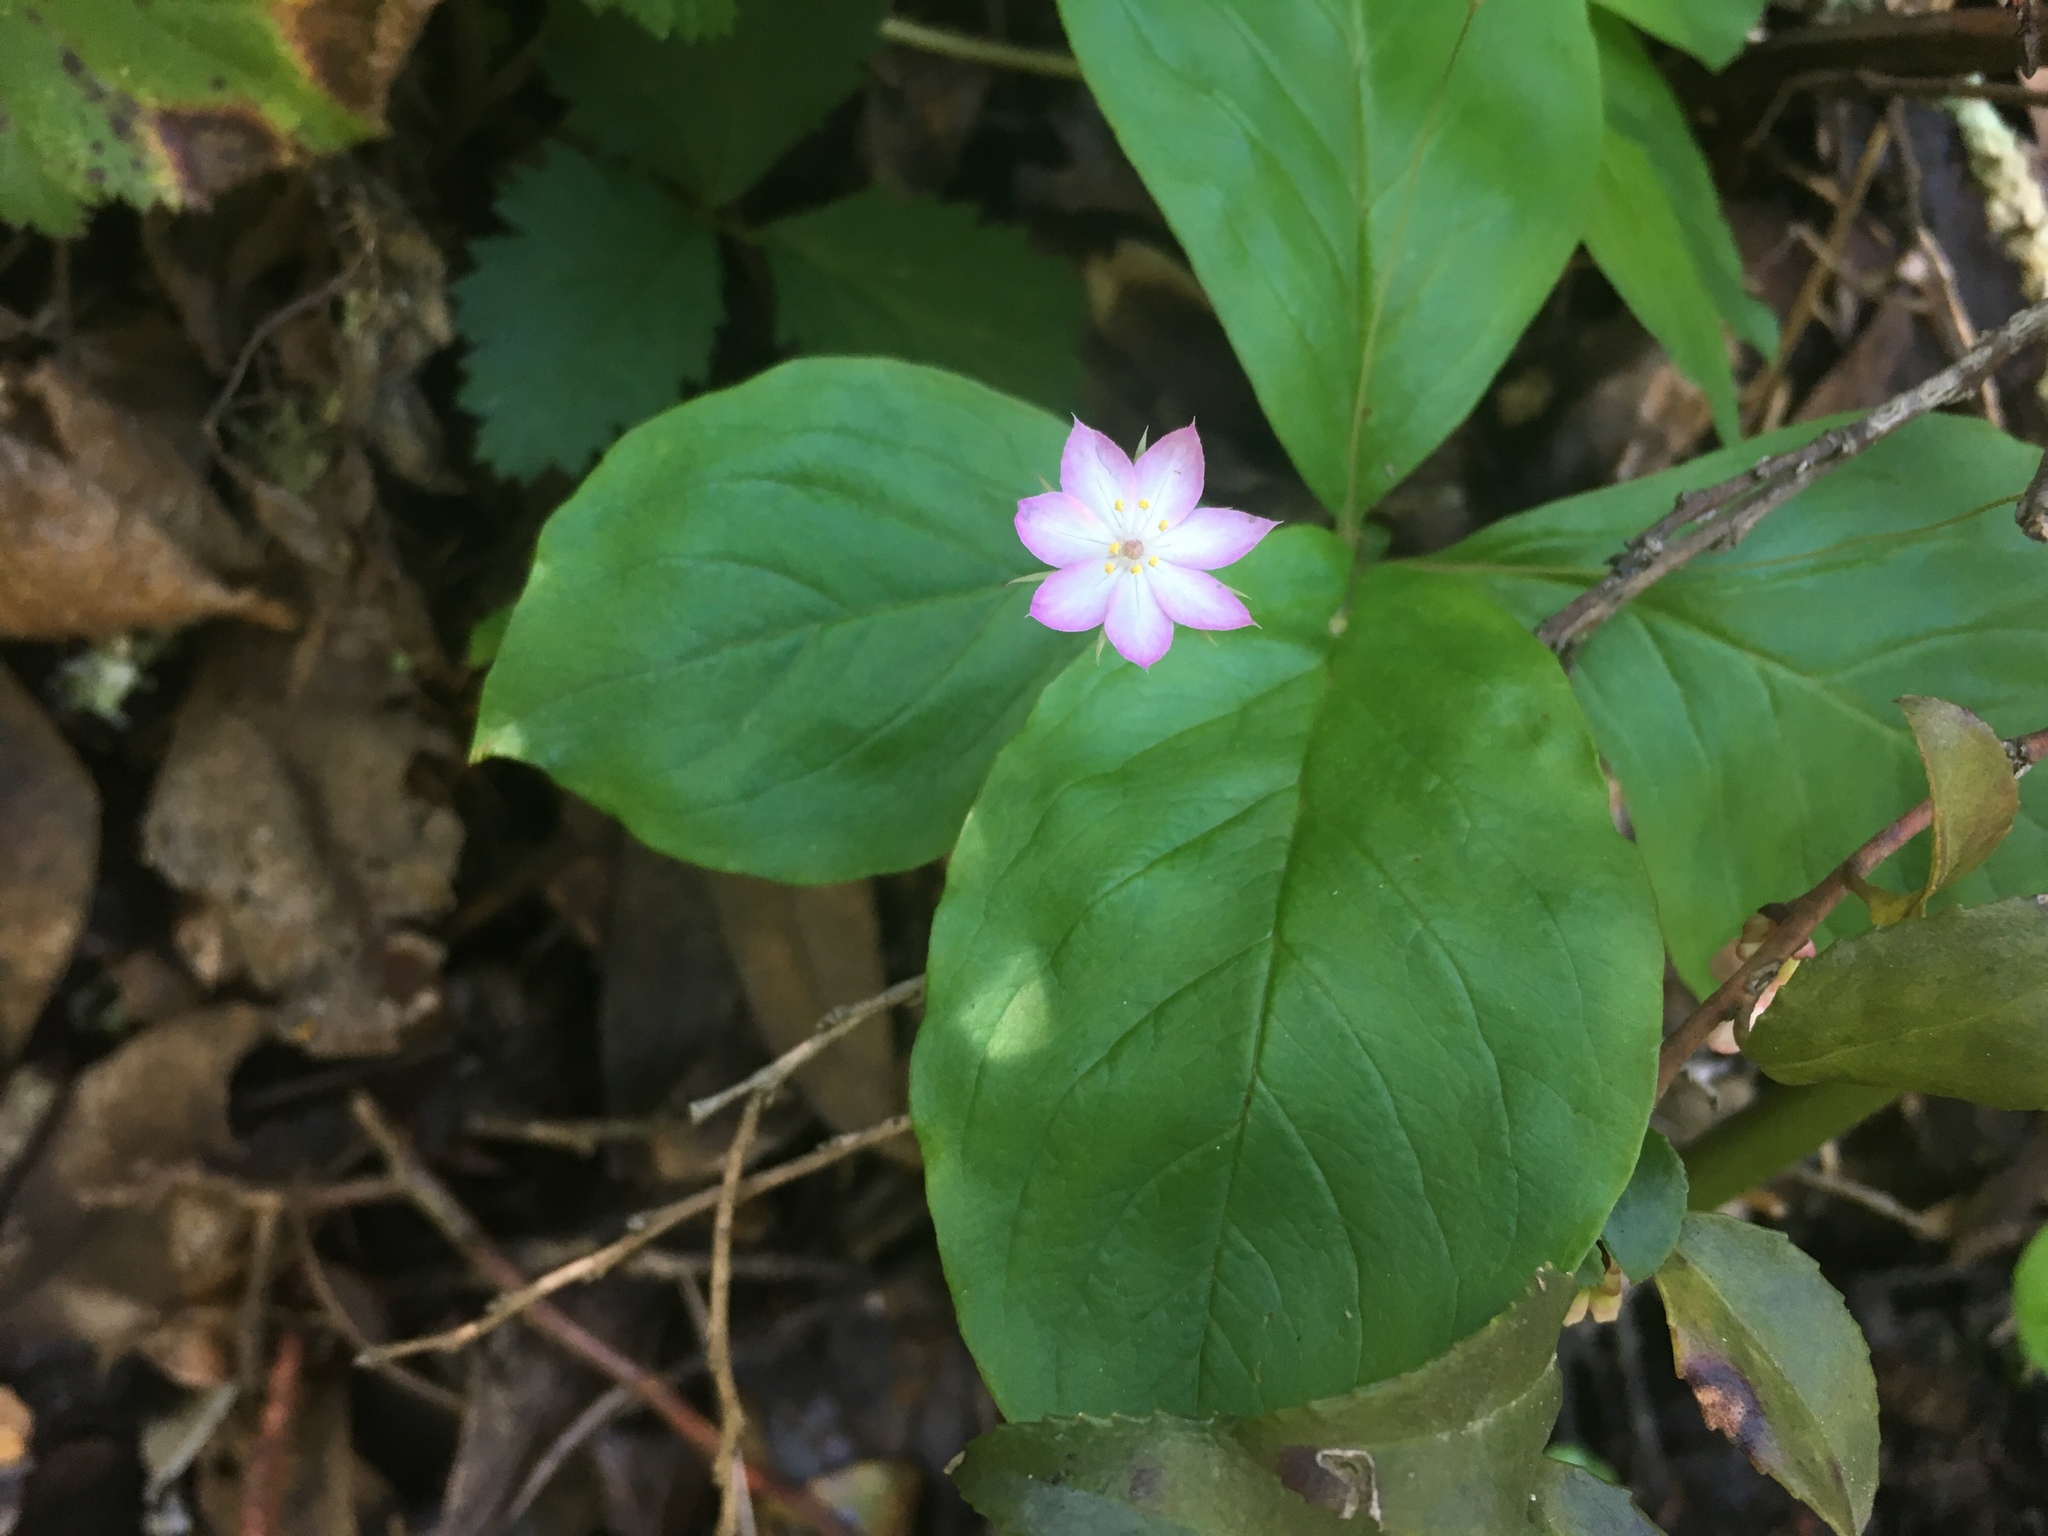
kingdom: Plantae
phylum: Tracheophyta
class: Magnoliopsida
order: Ericales
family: Primulaceae
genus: Lysimachia
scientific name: Lysimachia latifolia
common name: Pacific starflower
